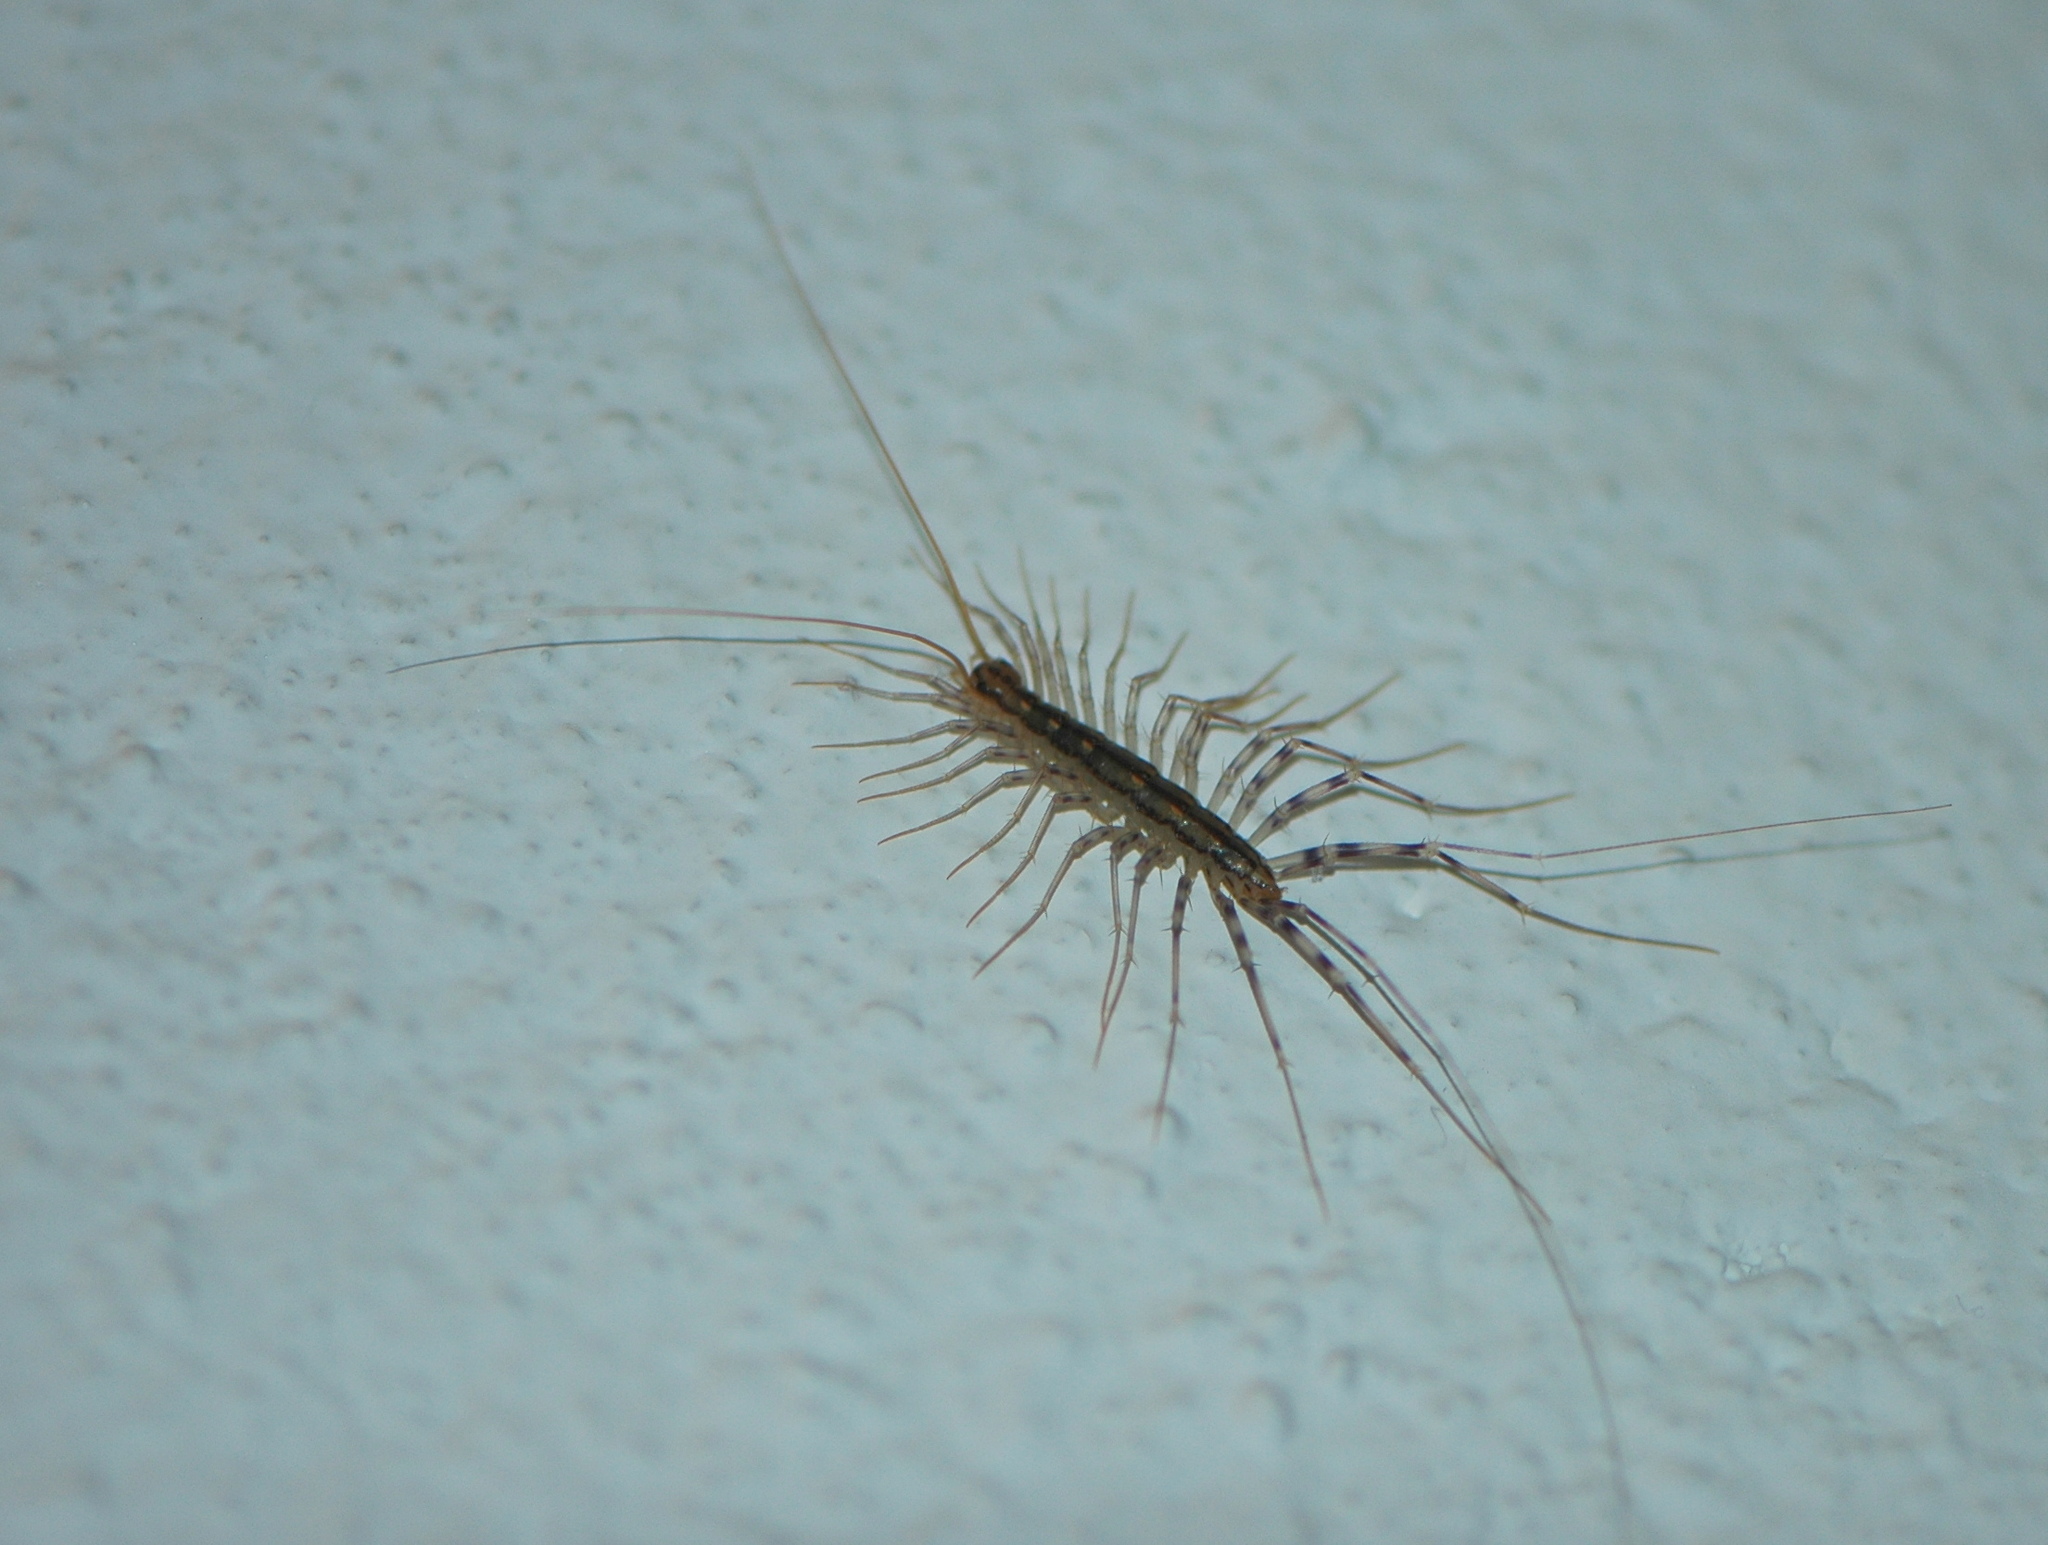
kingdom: Animalia
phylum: Arthropoda
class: Chilopoda
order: Scutigeromorpha
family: Scutigeridae
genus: Scutigera
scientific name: Scutigera coleoptrata
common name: House centipede
